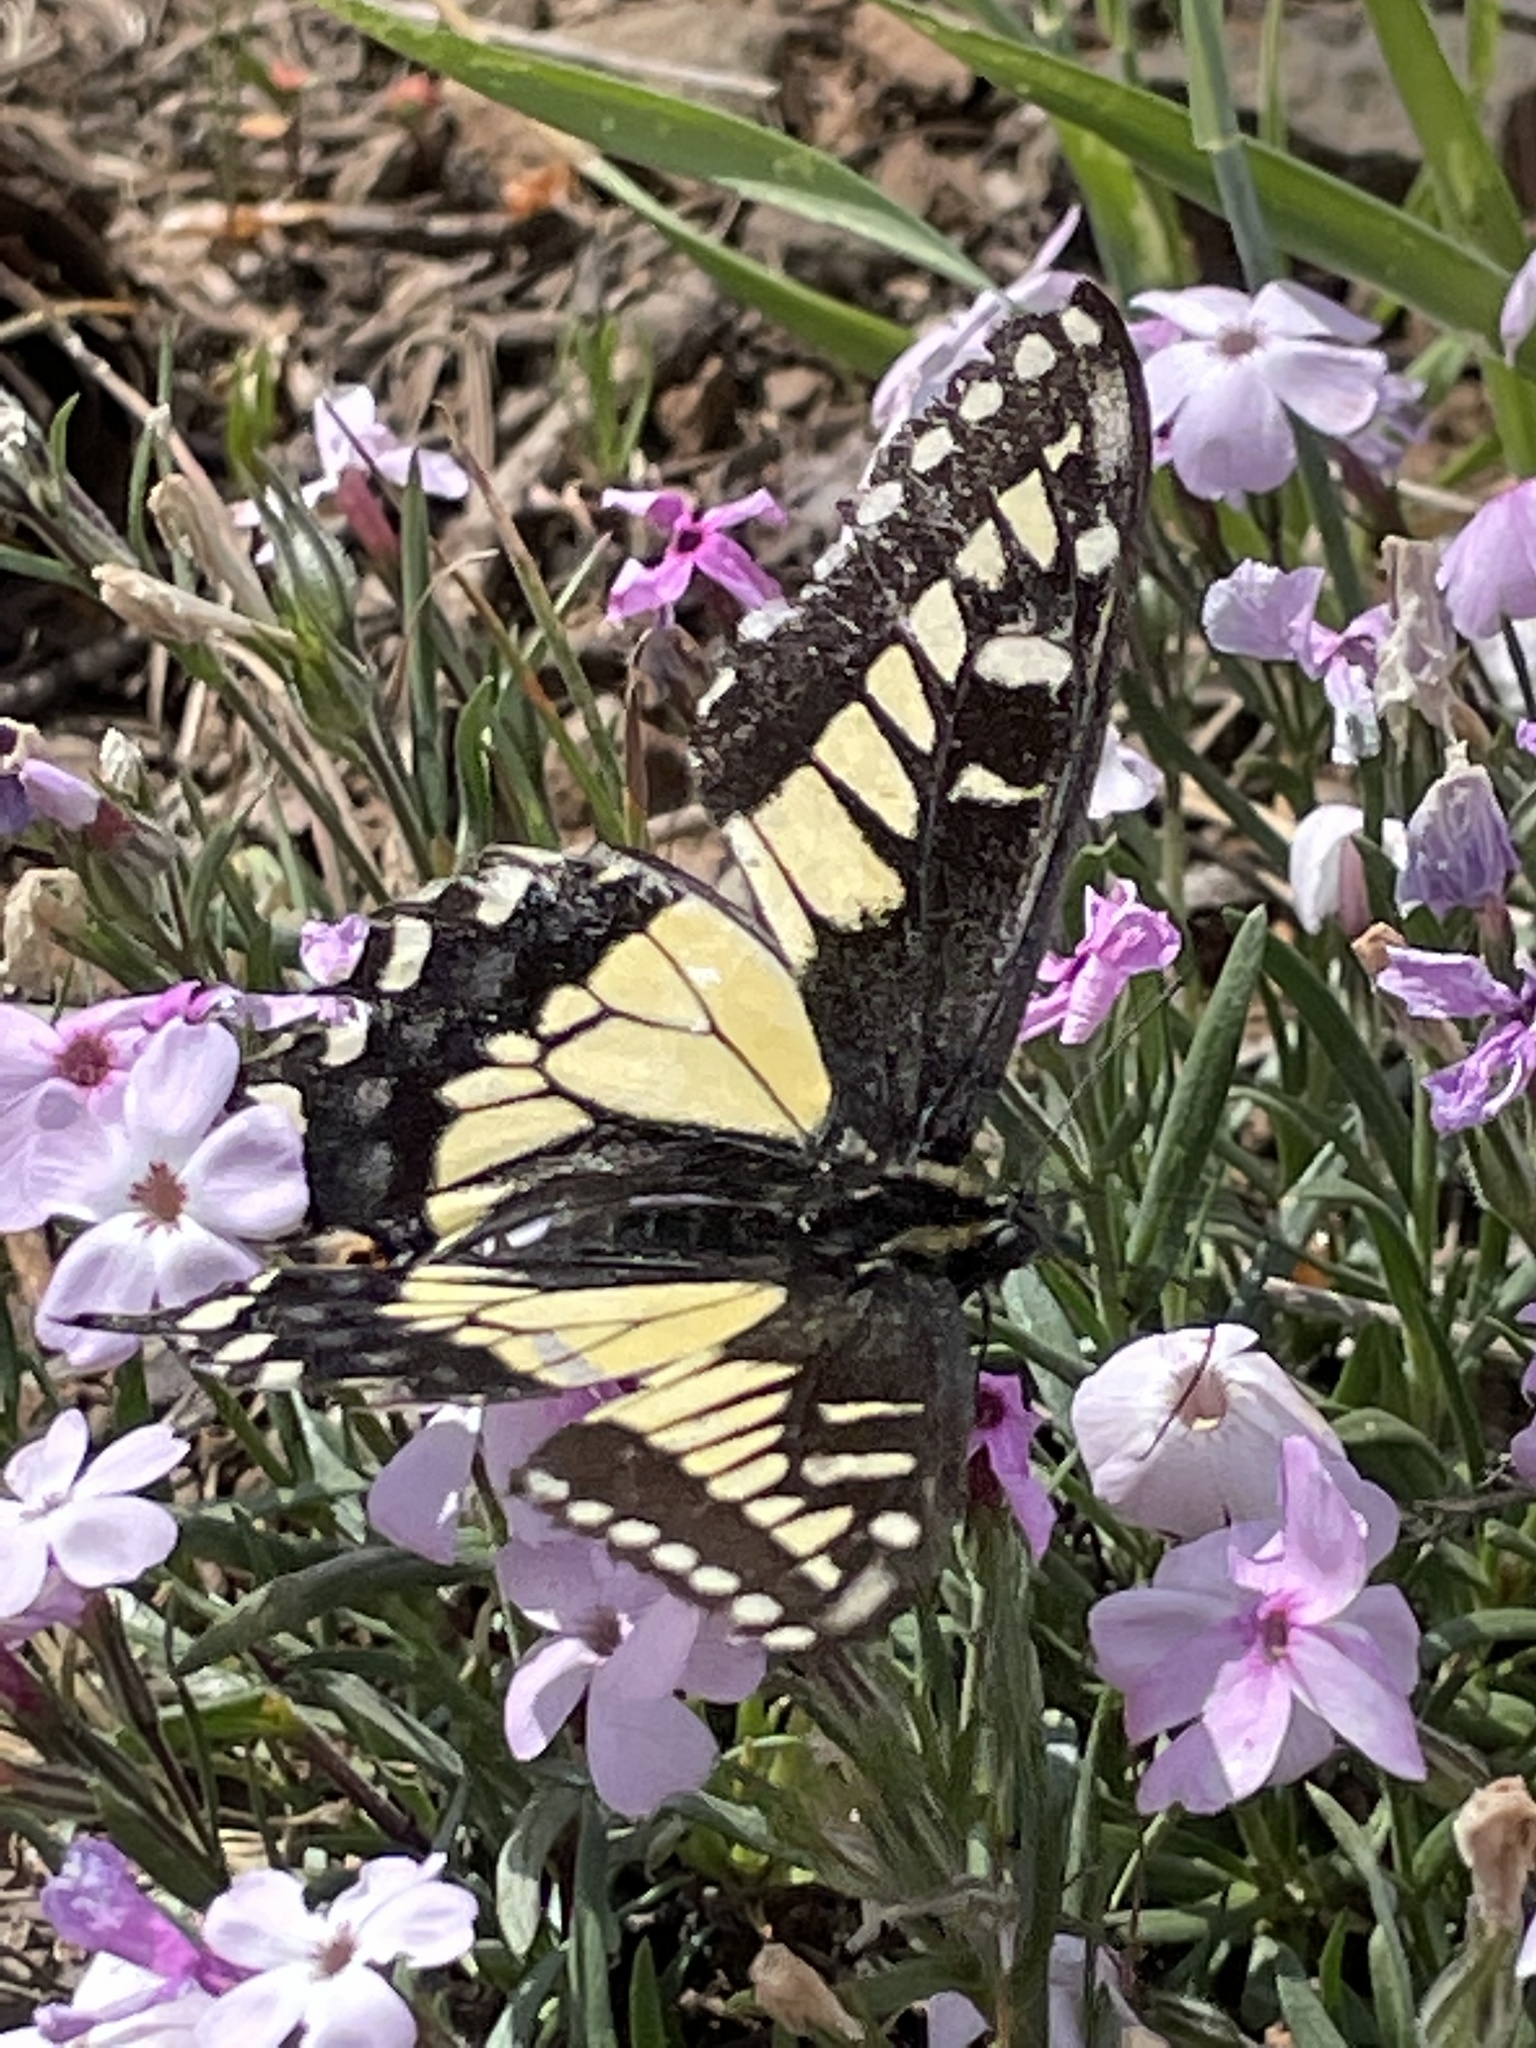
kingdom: Animalia
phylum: Arthropoda
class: Insecta
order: Lepidoptera
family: Papilionidae
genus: Papilio
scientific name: Papilio zelicaon
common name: Anise swallowtail
